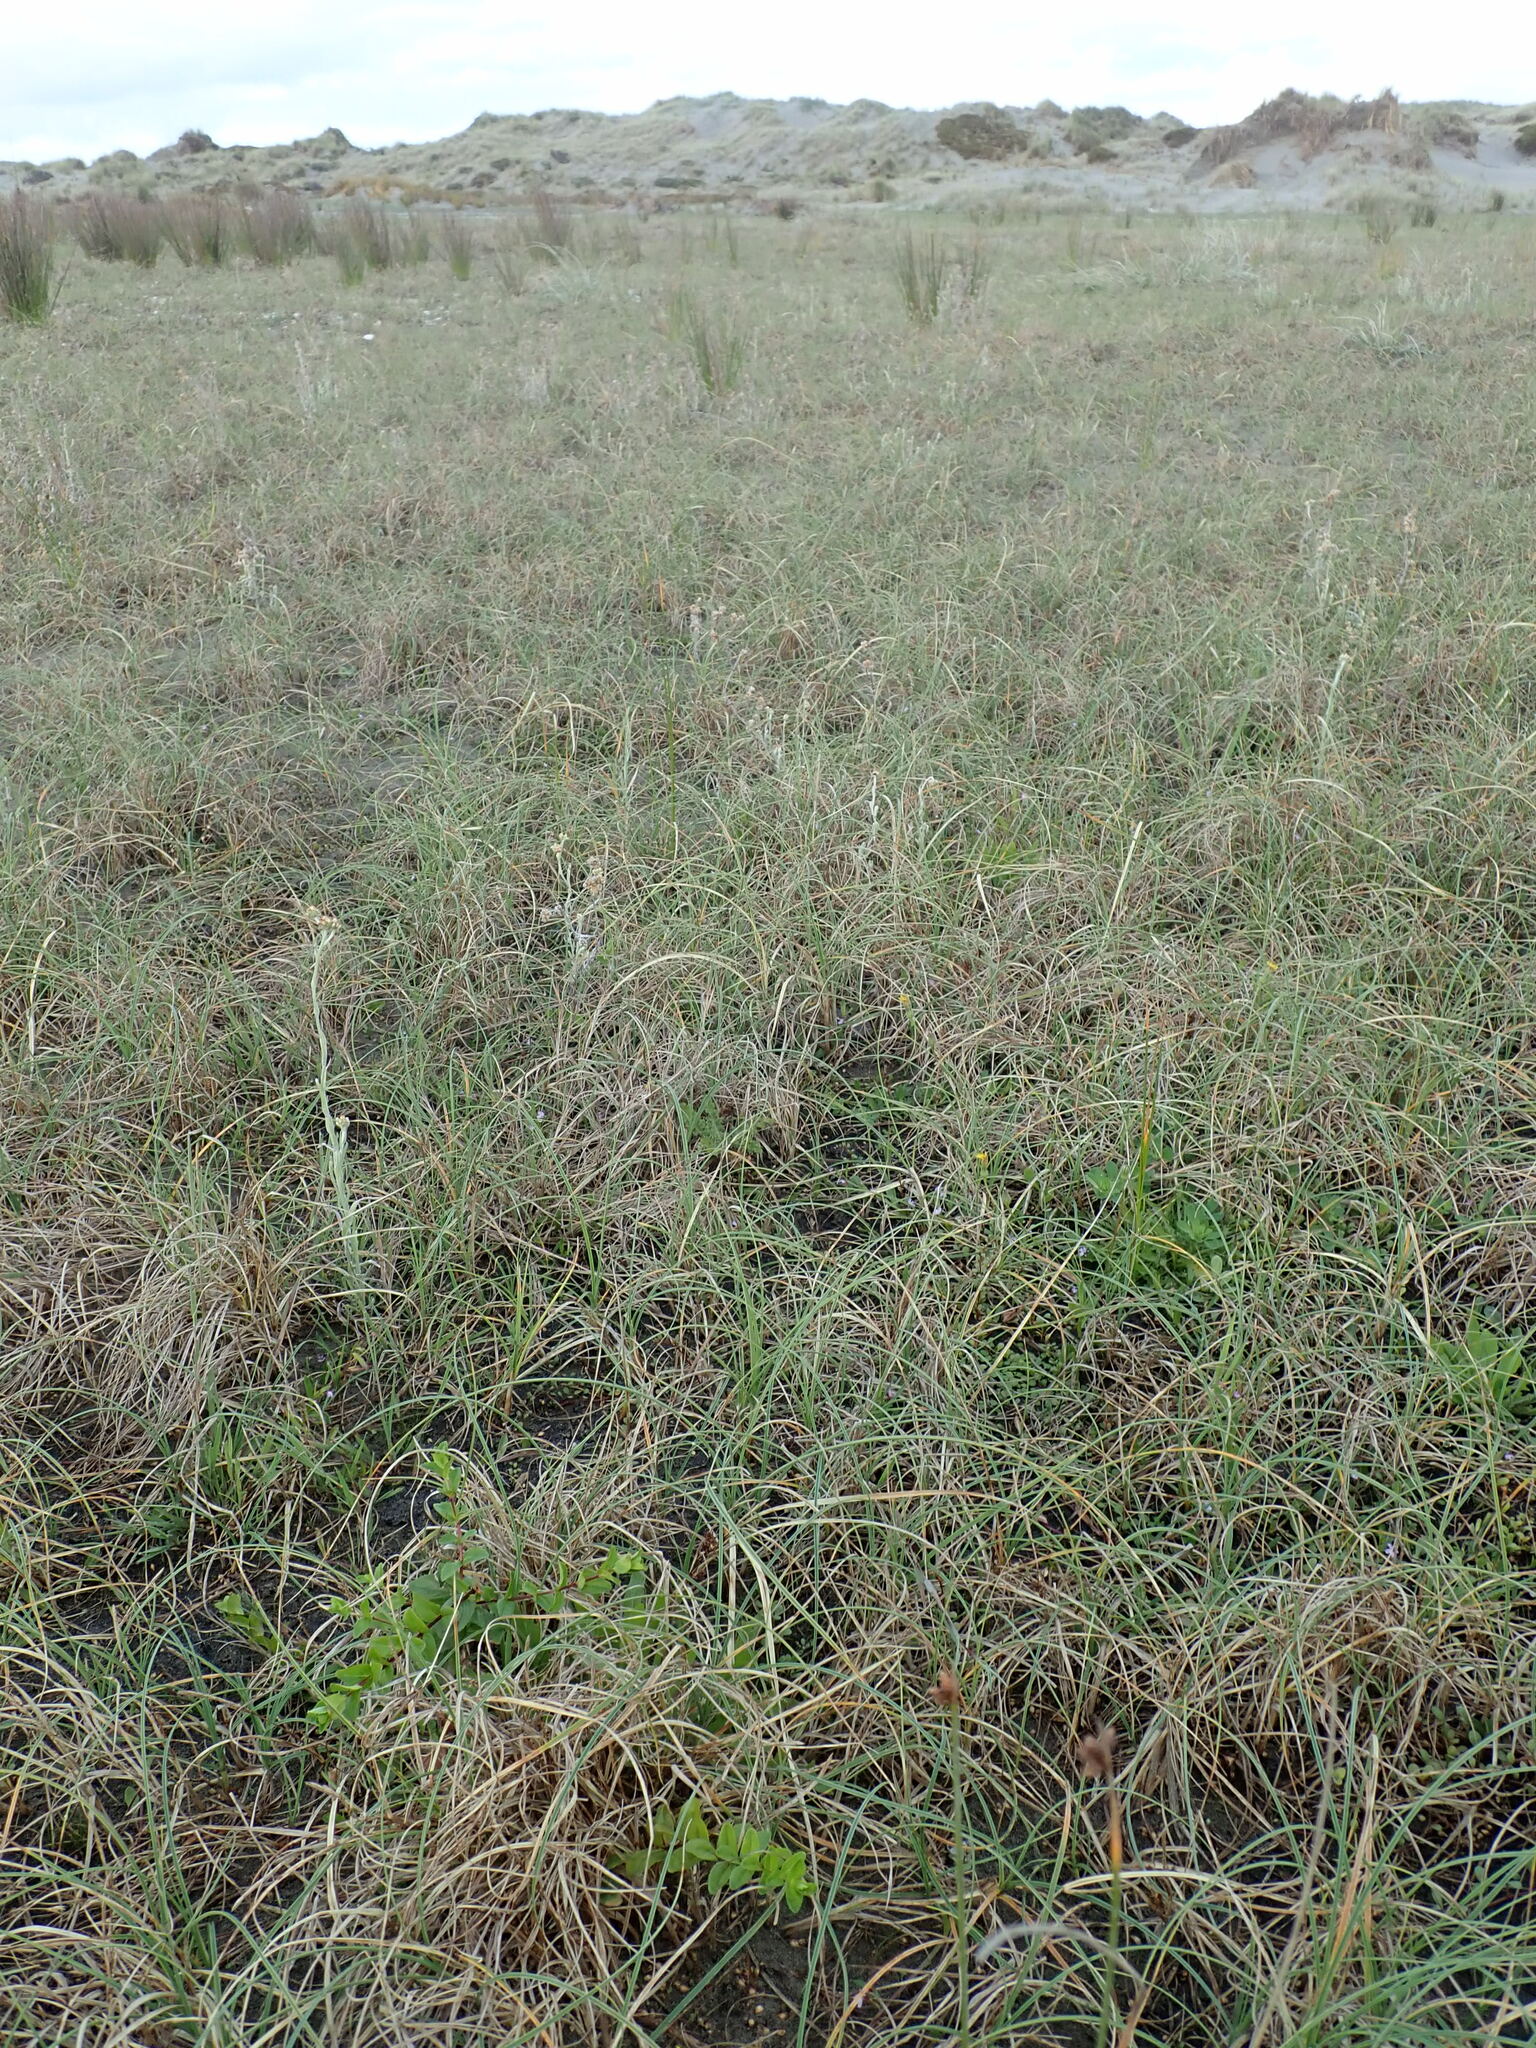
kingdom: Plantae
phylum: Tracheophyta
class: Magnoliopsida
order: Myrtales
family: Onagraceae
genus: Epilobium
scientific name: Epilobium billardiereanum
